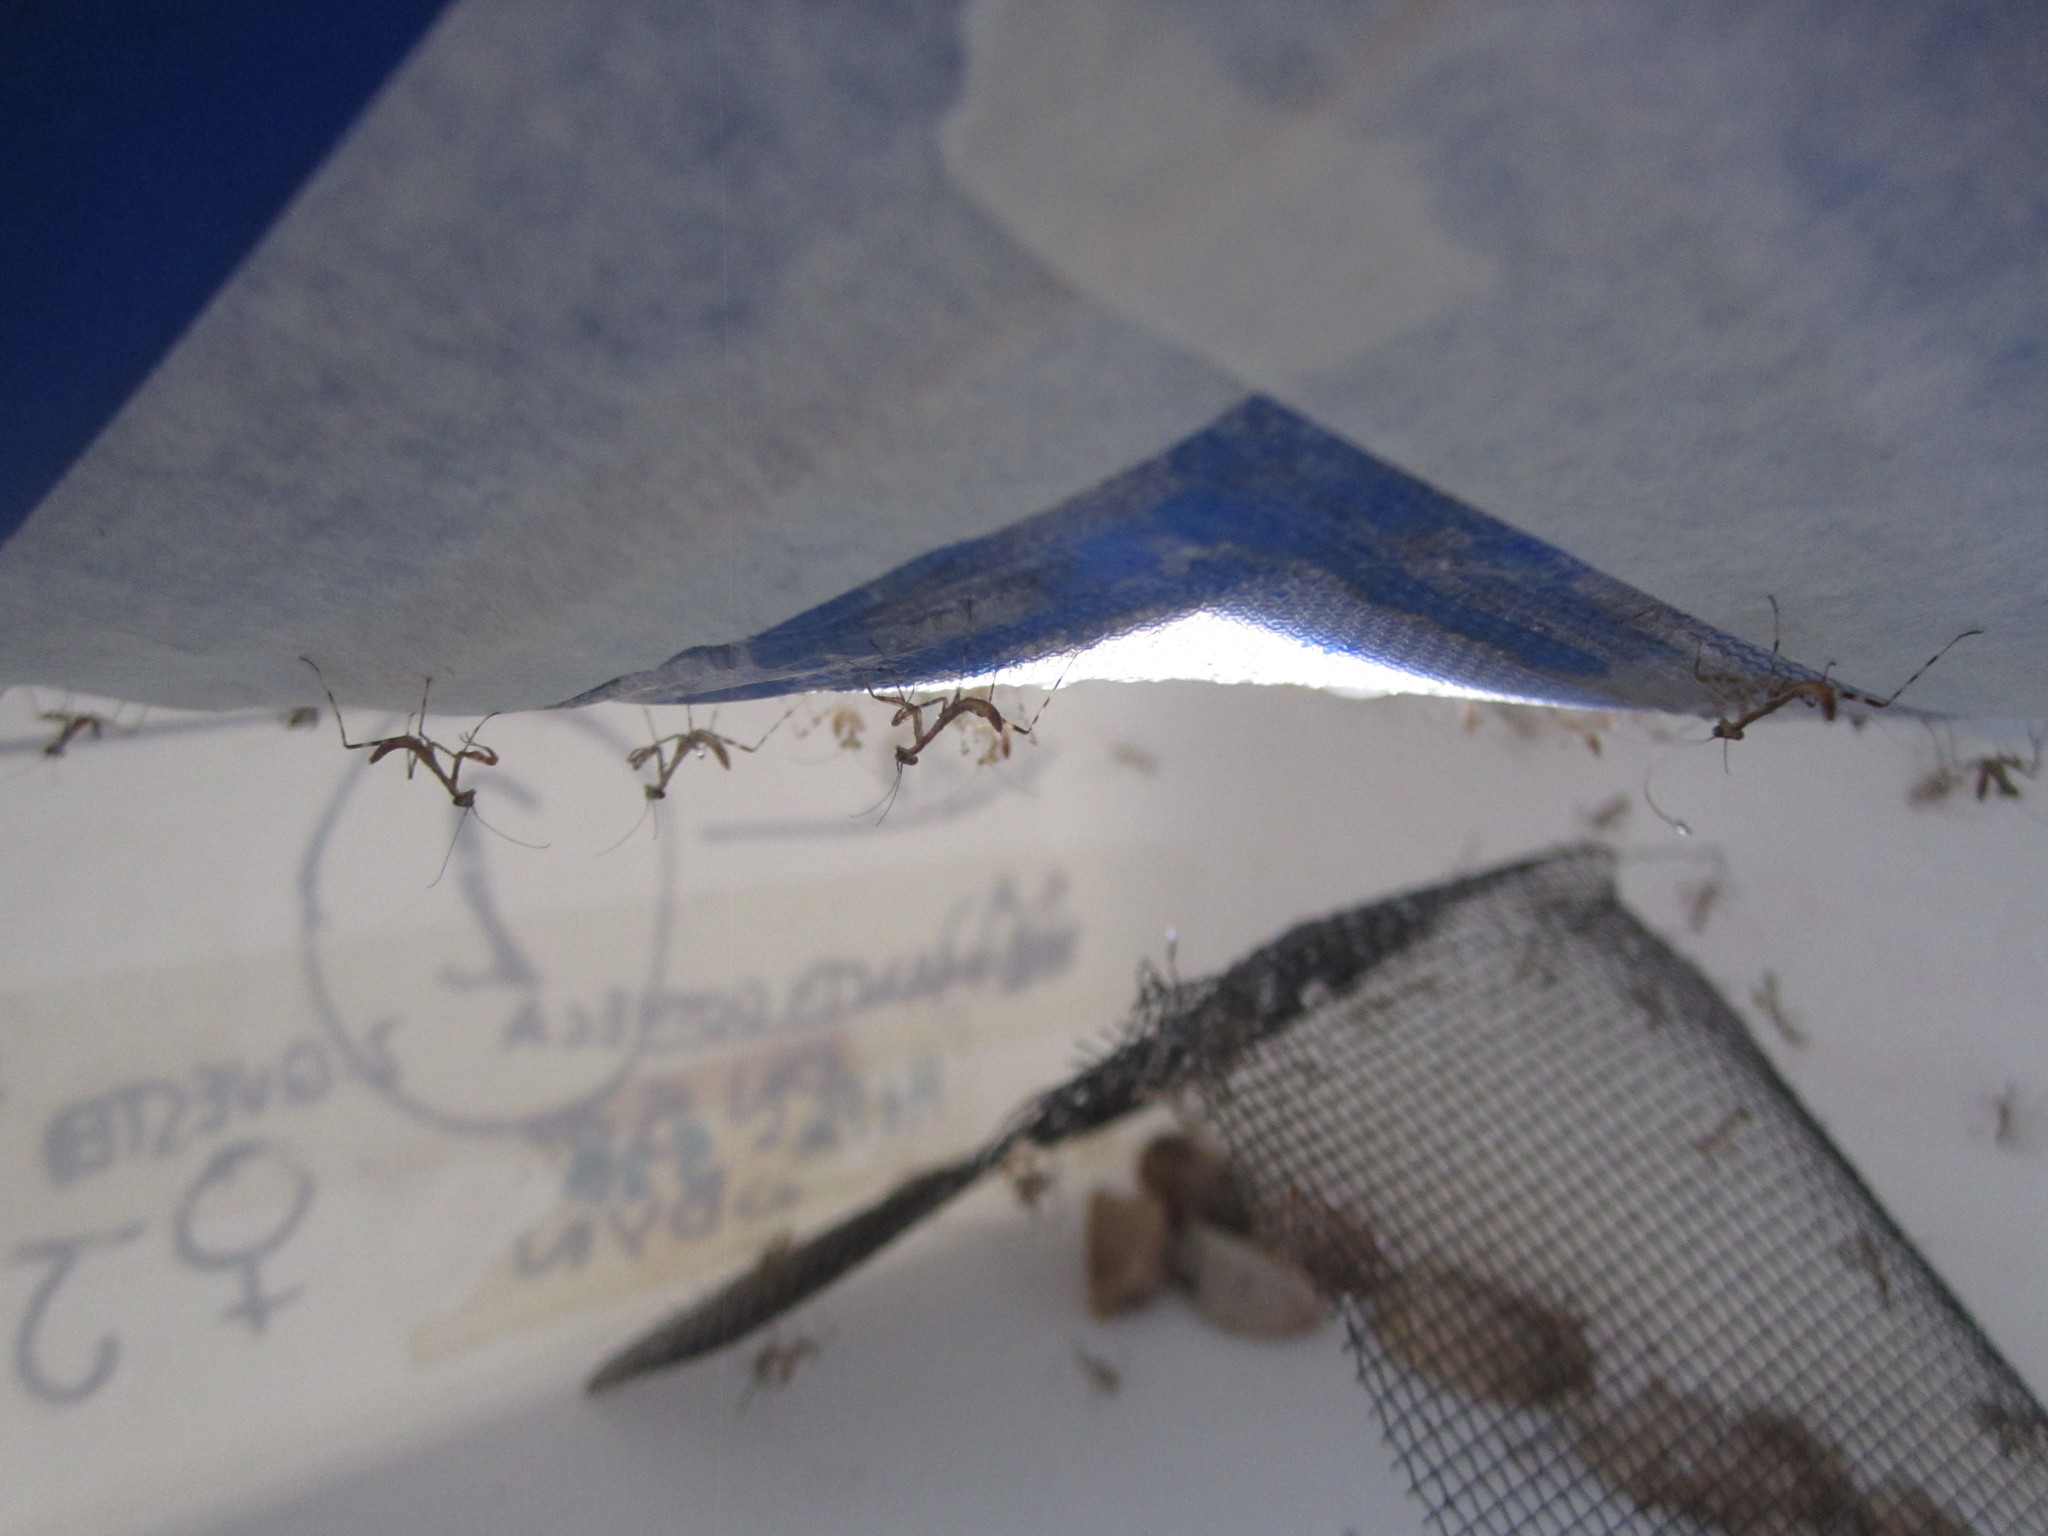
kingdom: Animalia
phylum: Arthropoda
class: Insecta
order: Mantodea
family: Miomantidae
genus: Miomantis
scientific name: Miomantis caffra
